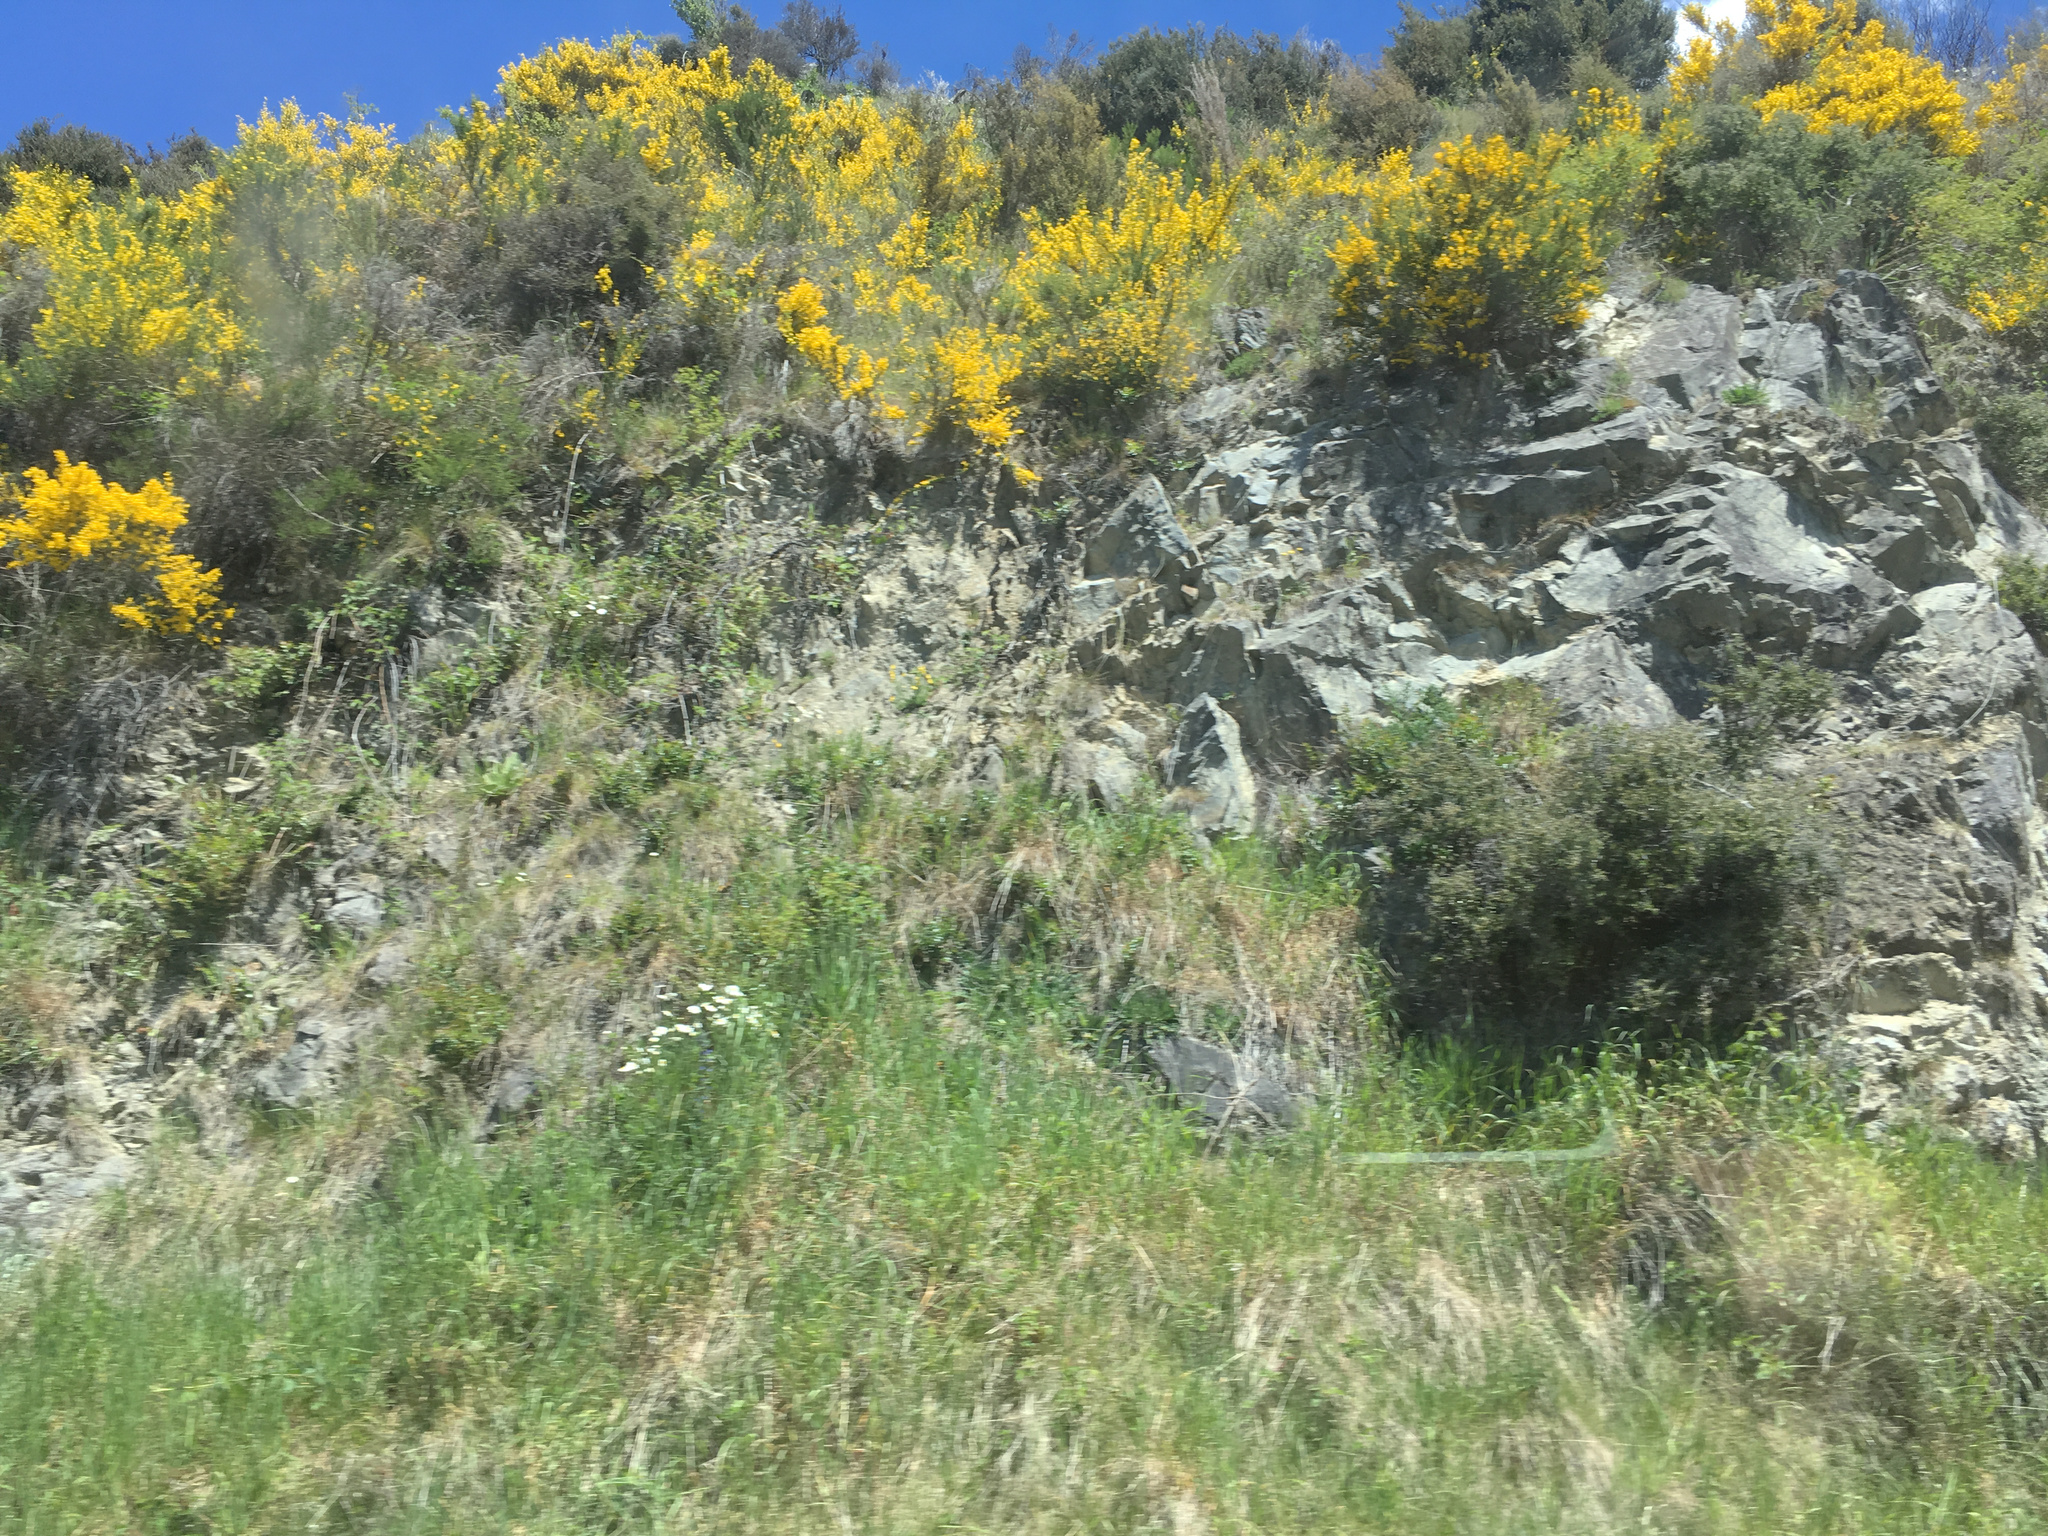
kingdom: Plantae
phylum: Tracheophyta
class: Magnoliopsida
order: Fabales
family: Fabaceae
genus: Cytisus
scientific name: Cytisus scoparius
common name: Scotch broom
